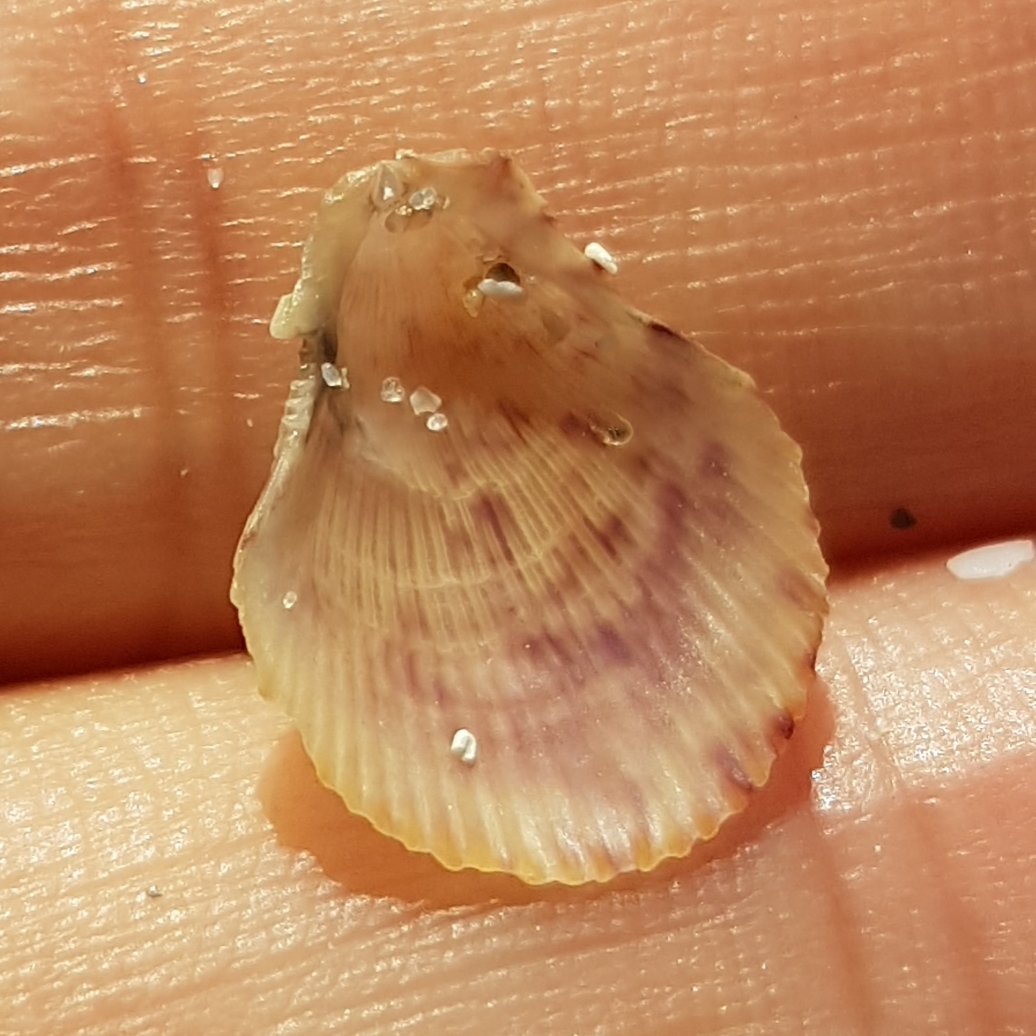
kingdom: Animalia
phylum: Mollusca
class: Bivalvia
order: Pectinida
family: Pectinidae
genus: Mimachlamys
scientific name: Mimachlamys varia
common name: Variegated scallop
